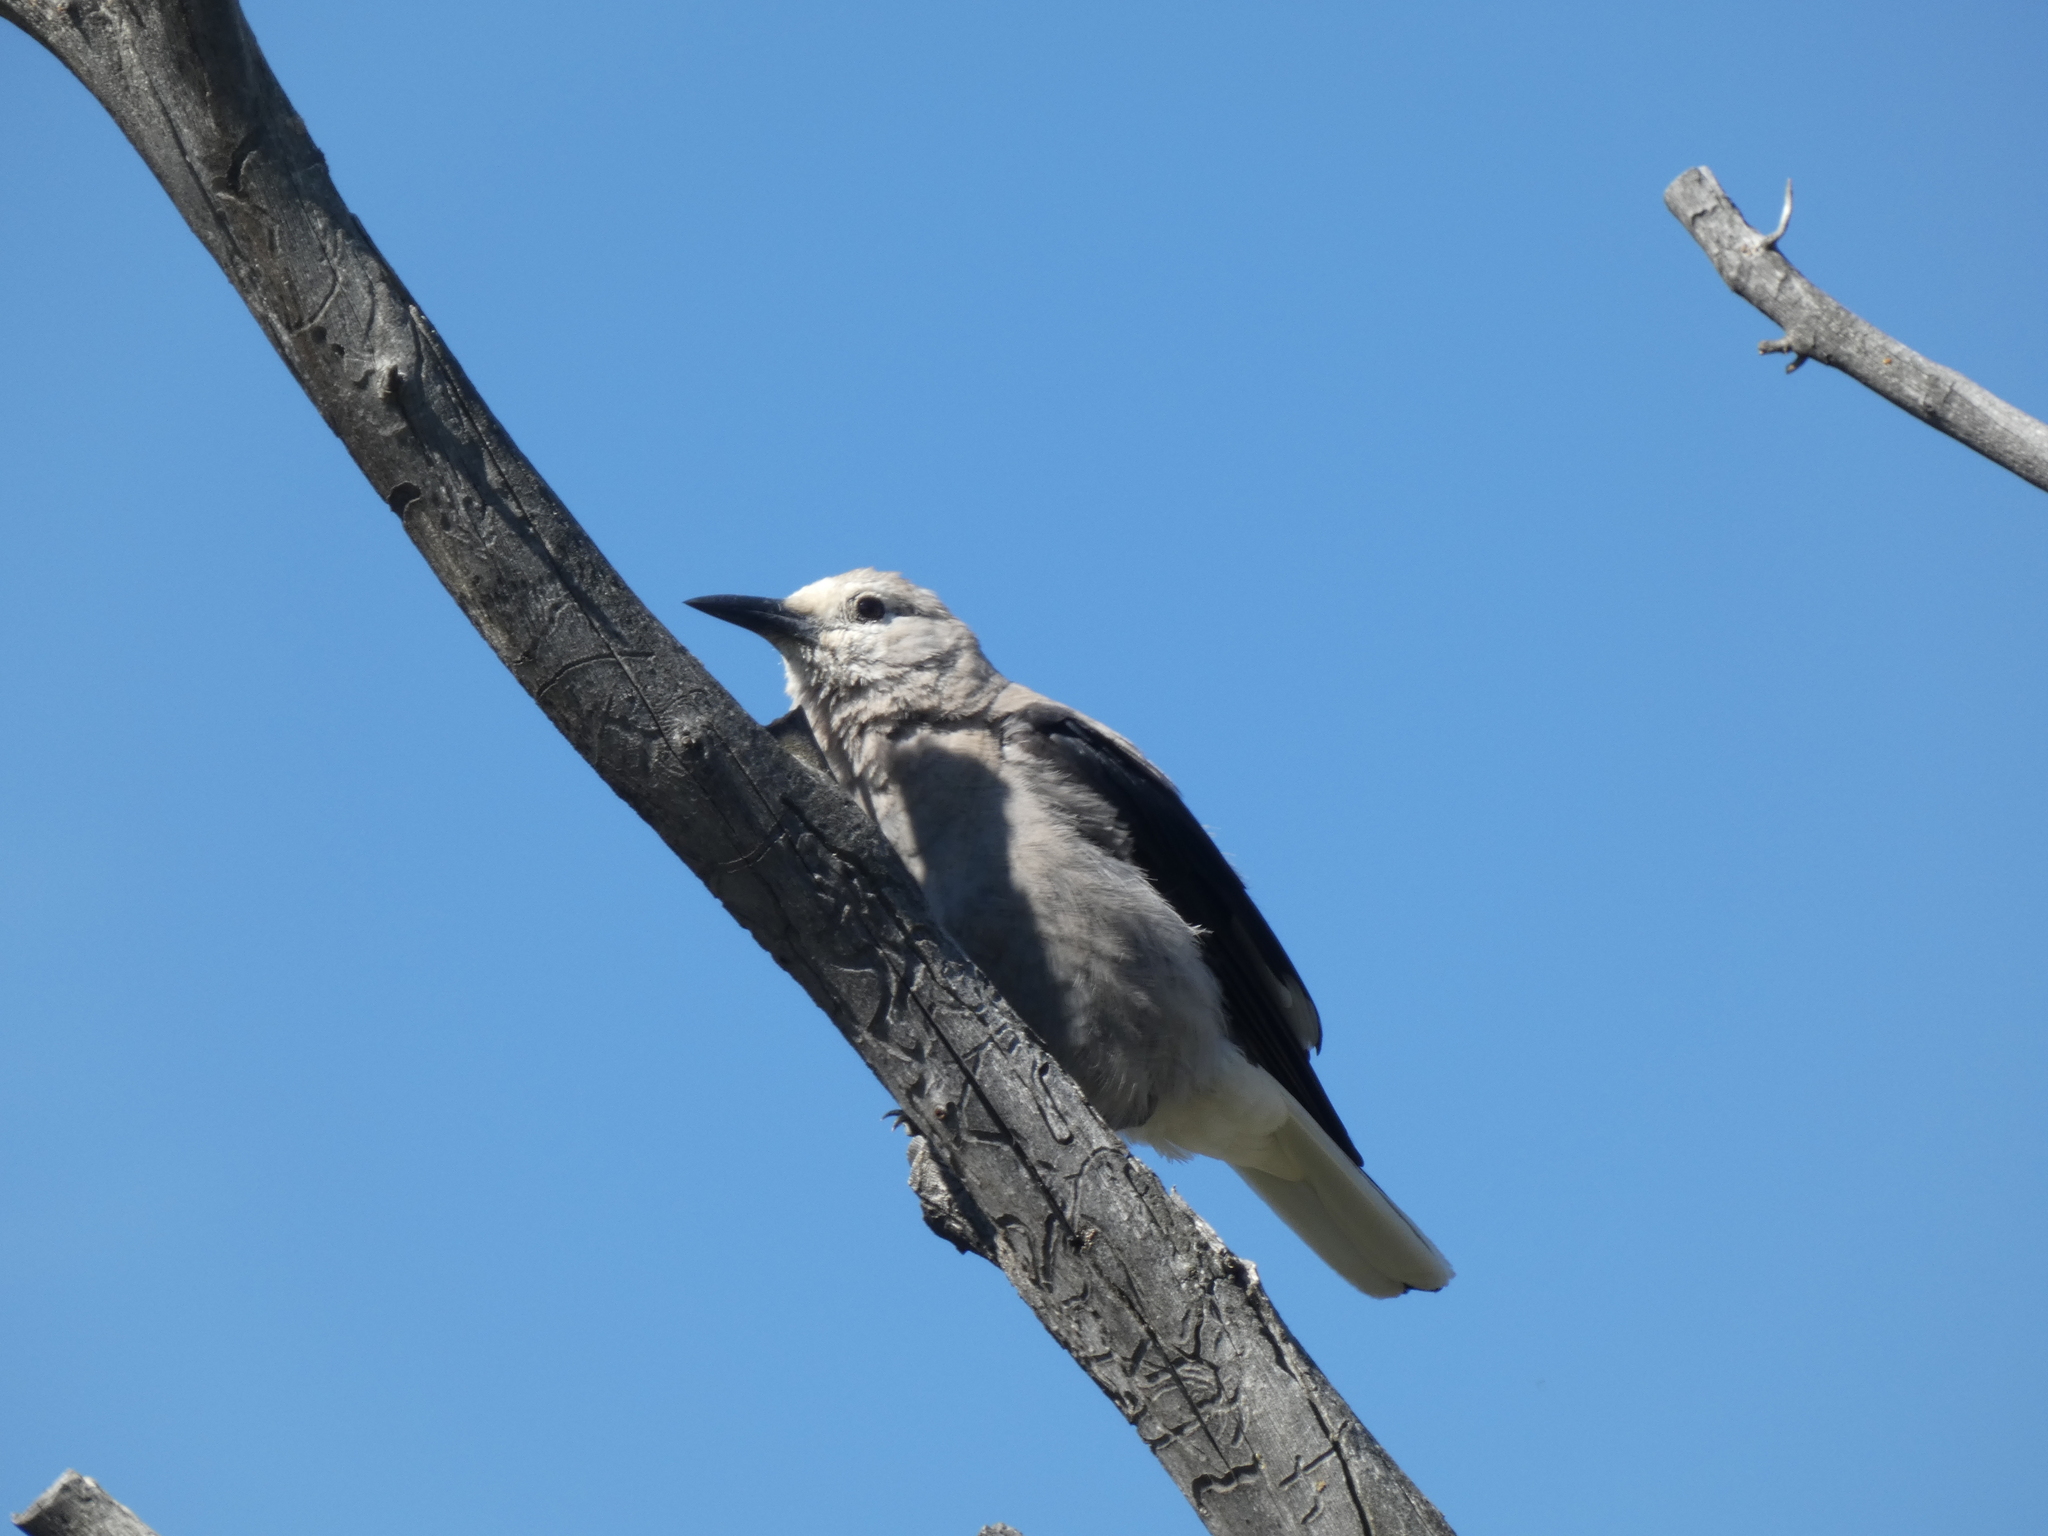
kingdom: Animalia
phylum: Chordata
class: Aves
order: Passeriformes
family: Corvidae
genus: Nucifraga
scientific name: Nucifraga columbiana
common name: Clark's nutcracker
